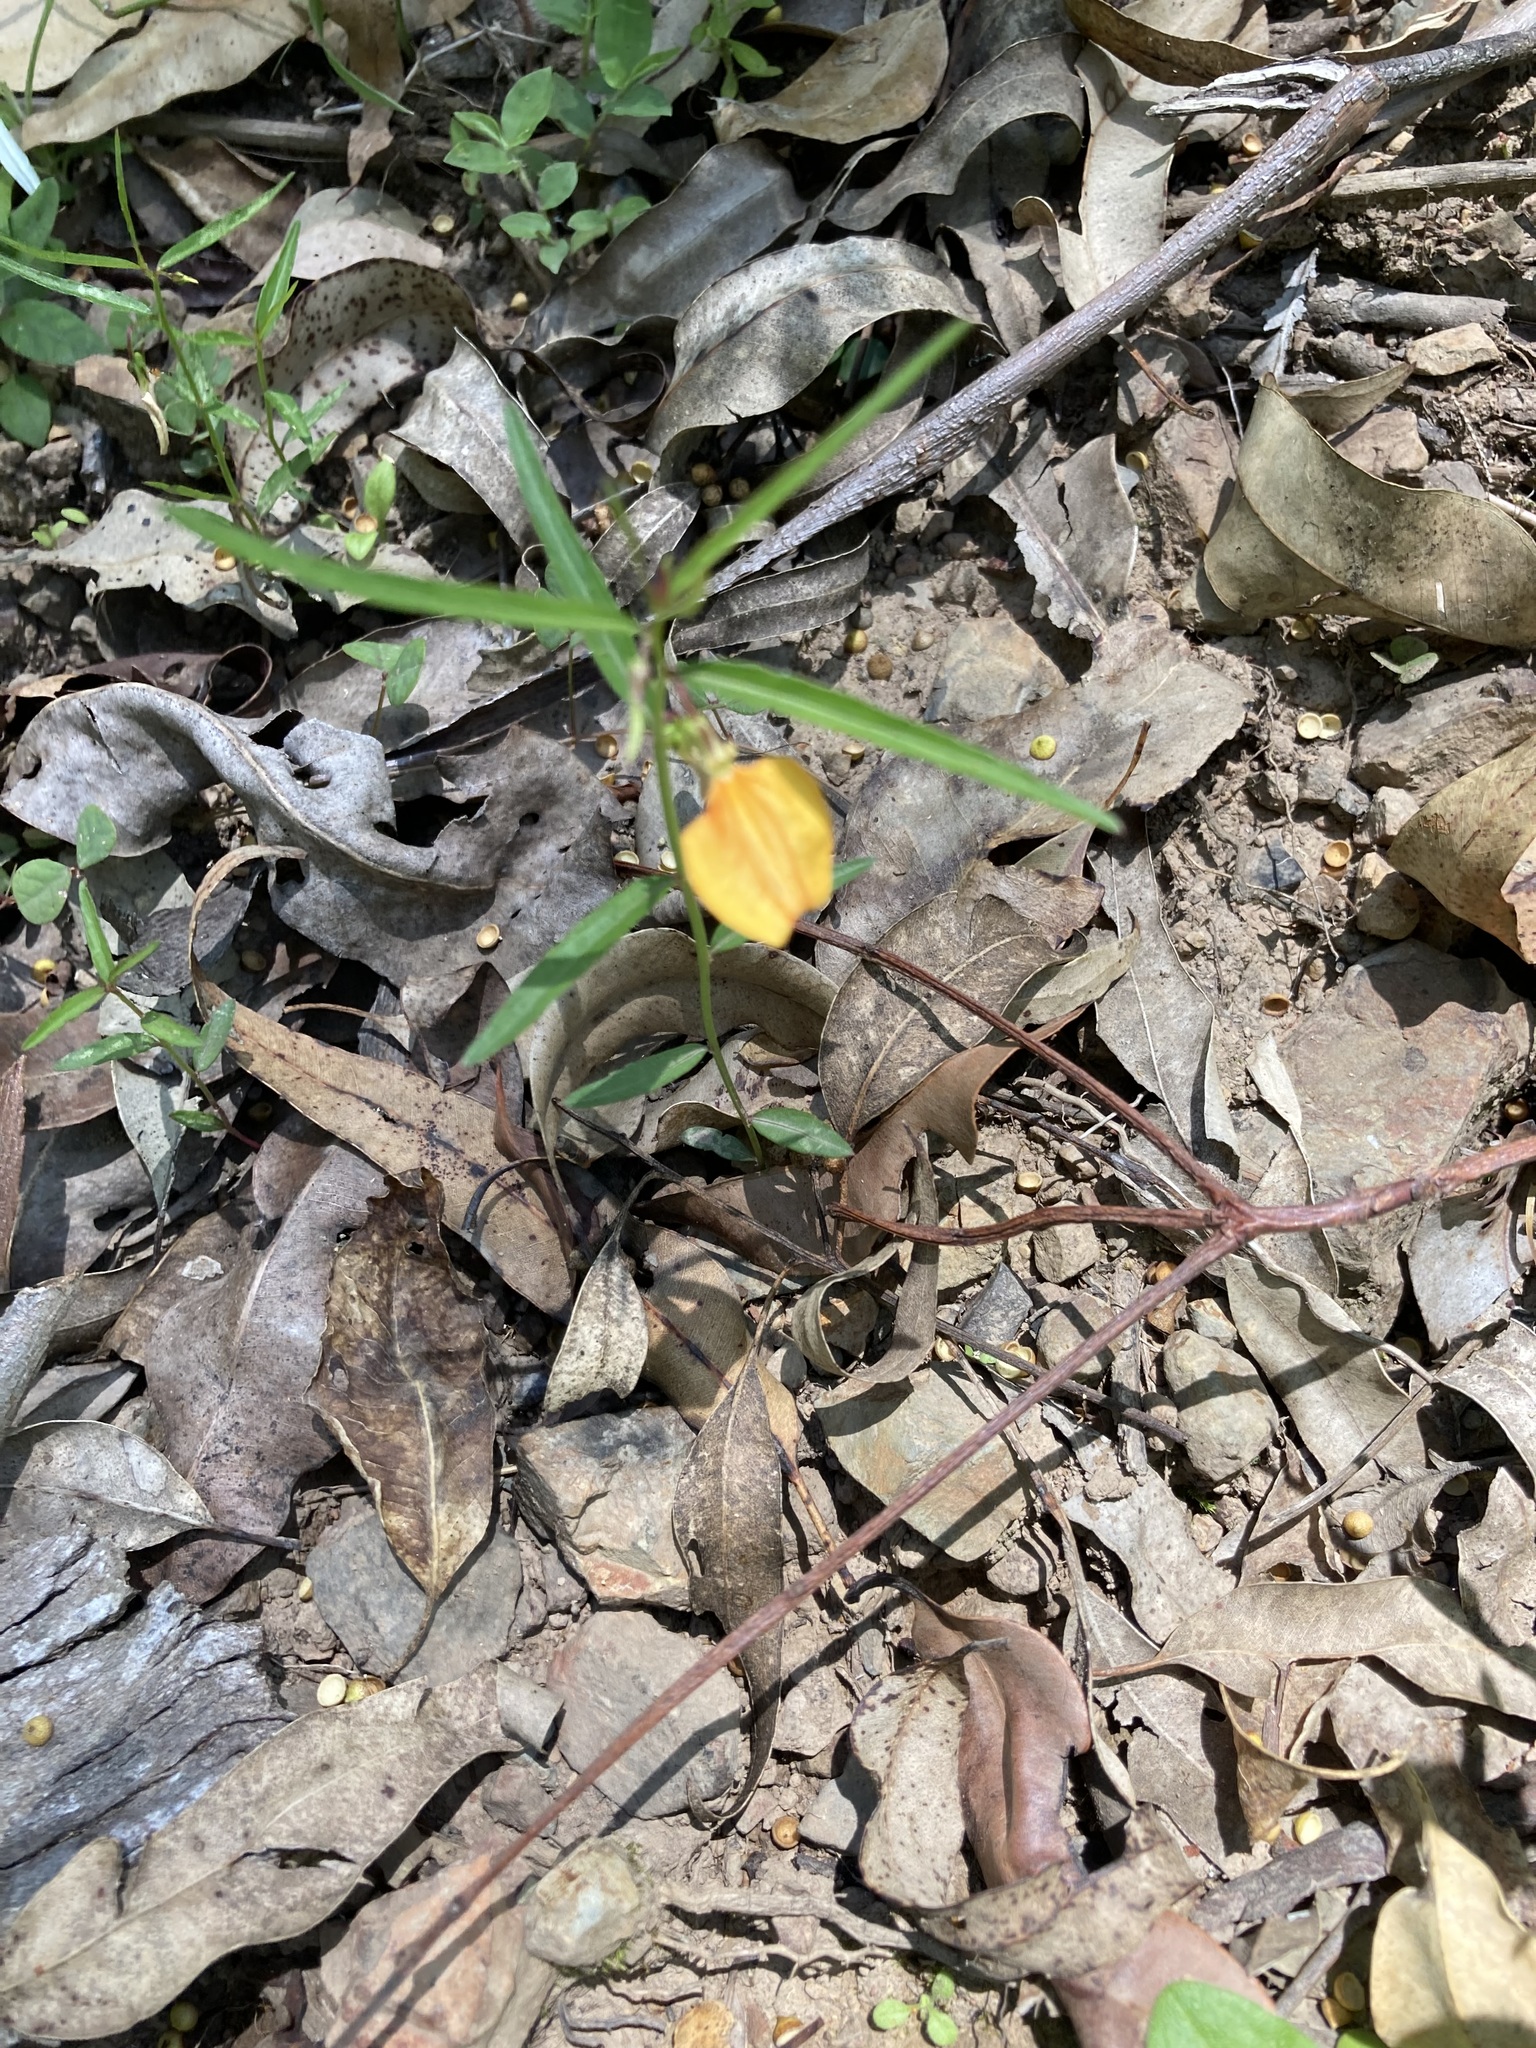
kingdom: Plantae
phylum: Tracheophyta
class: Magnoliopsida
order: Malpighiales
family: Violaceae
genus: Pigea
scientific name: Pigea stellarioides
